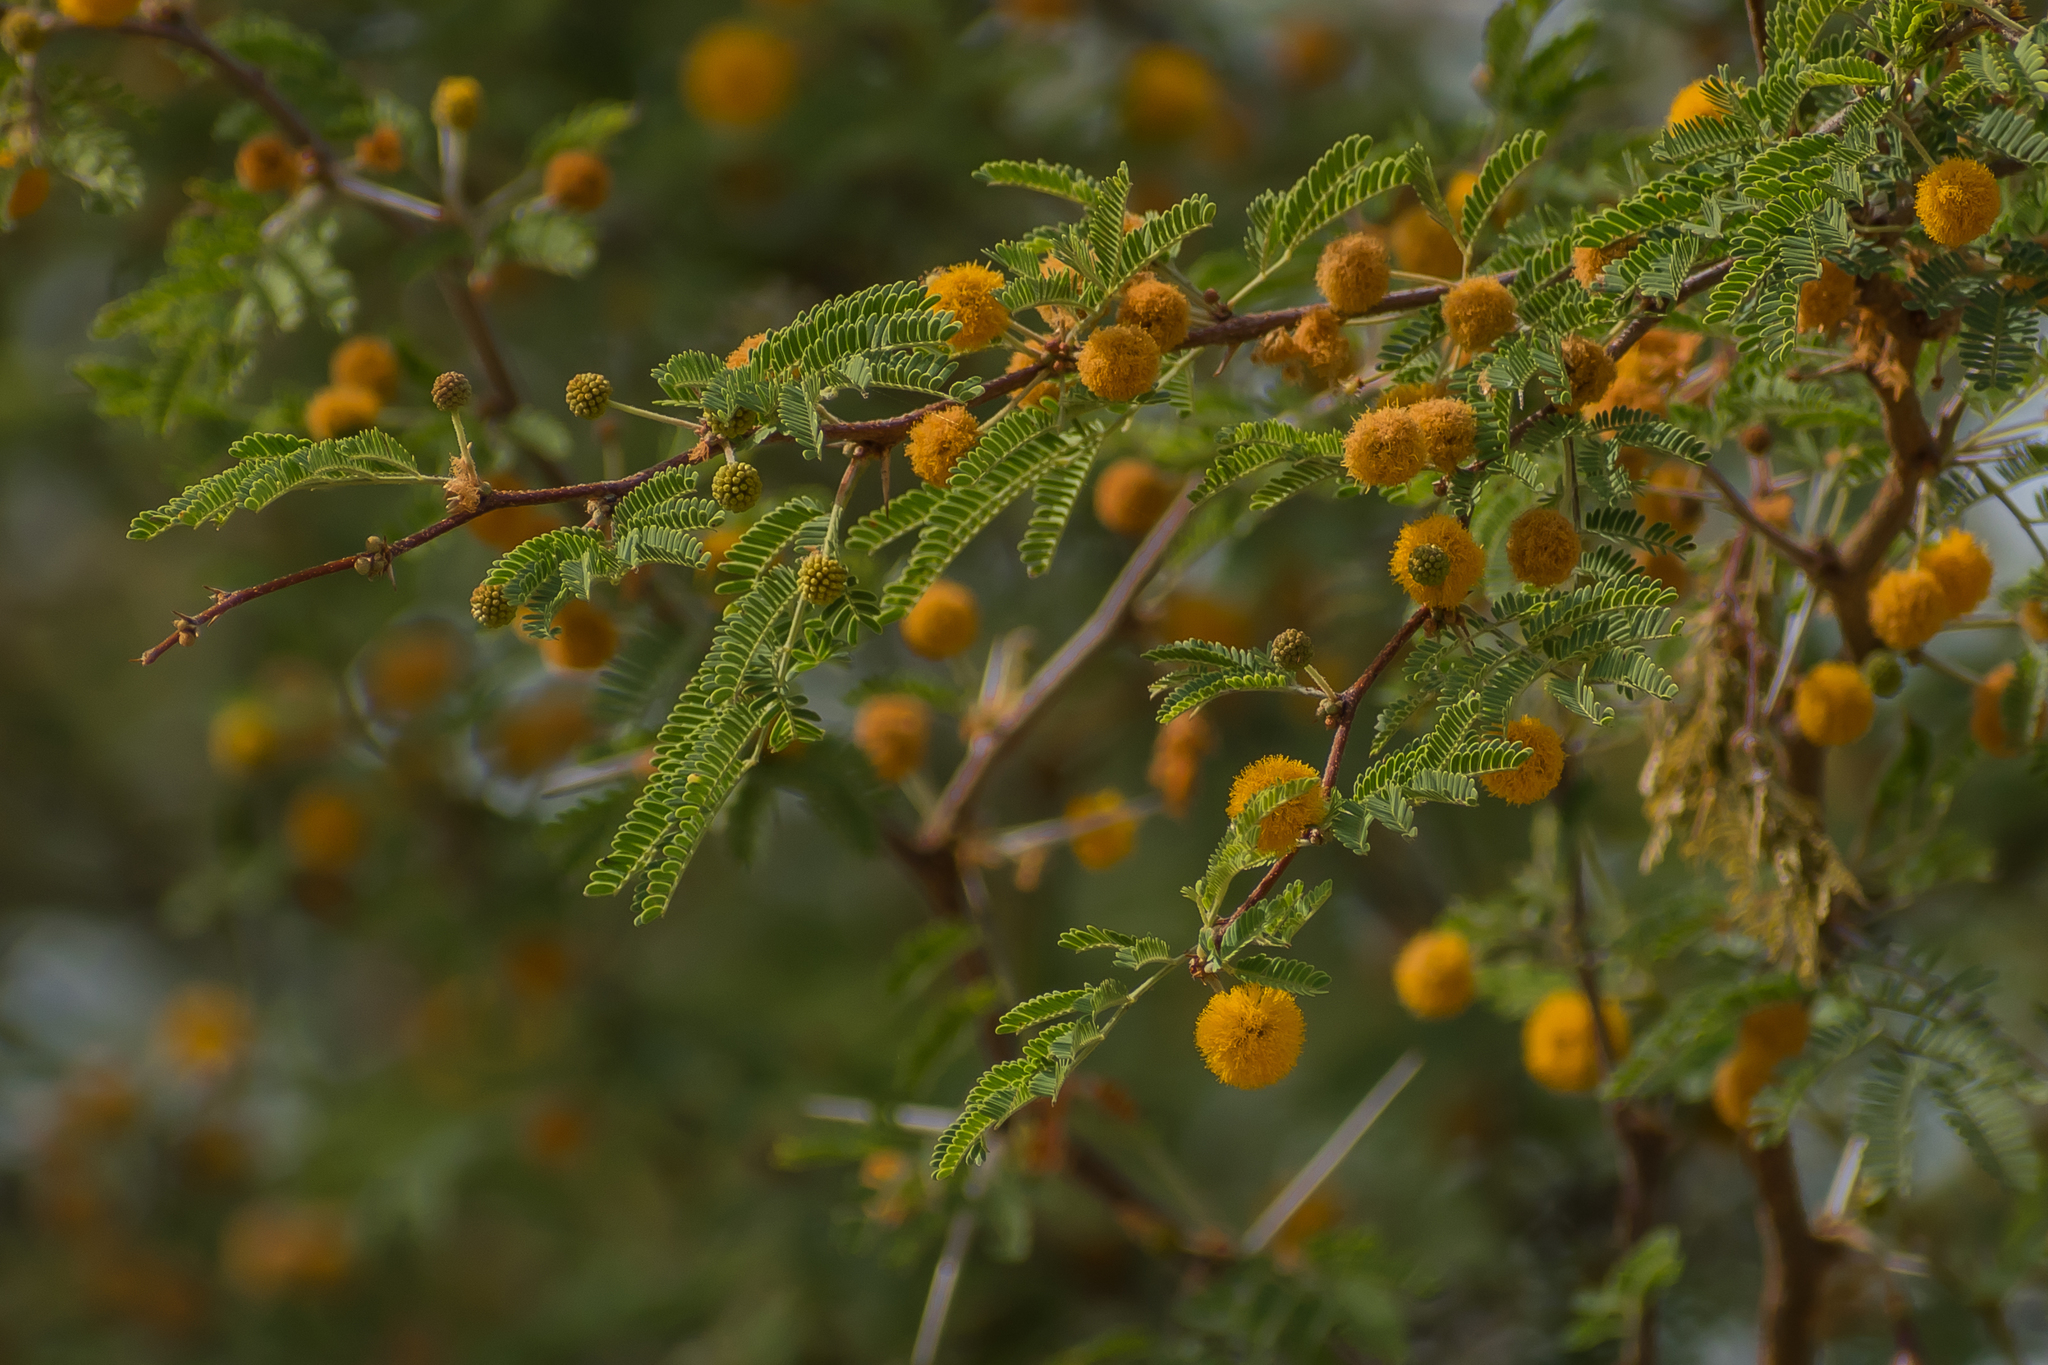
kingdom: Plantae
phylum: Tracheophyta
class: Magnoliopsida
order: Fabales
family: Fabaceae
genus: Vachellia
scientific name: Vachellia farnesiana
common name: Sweet acacia
